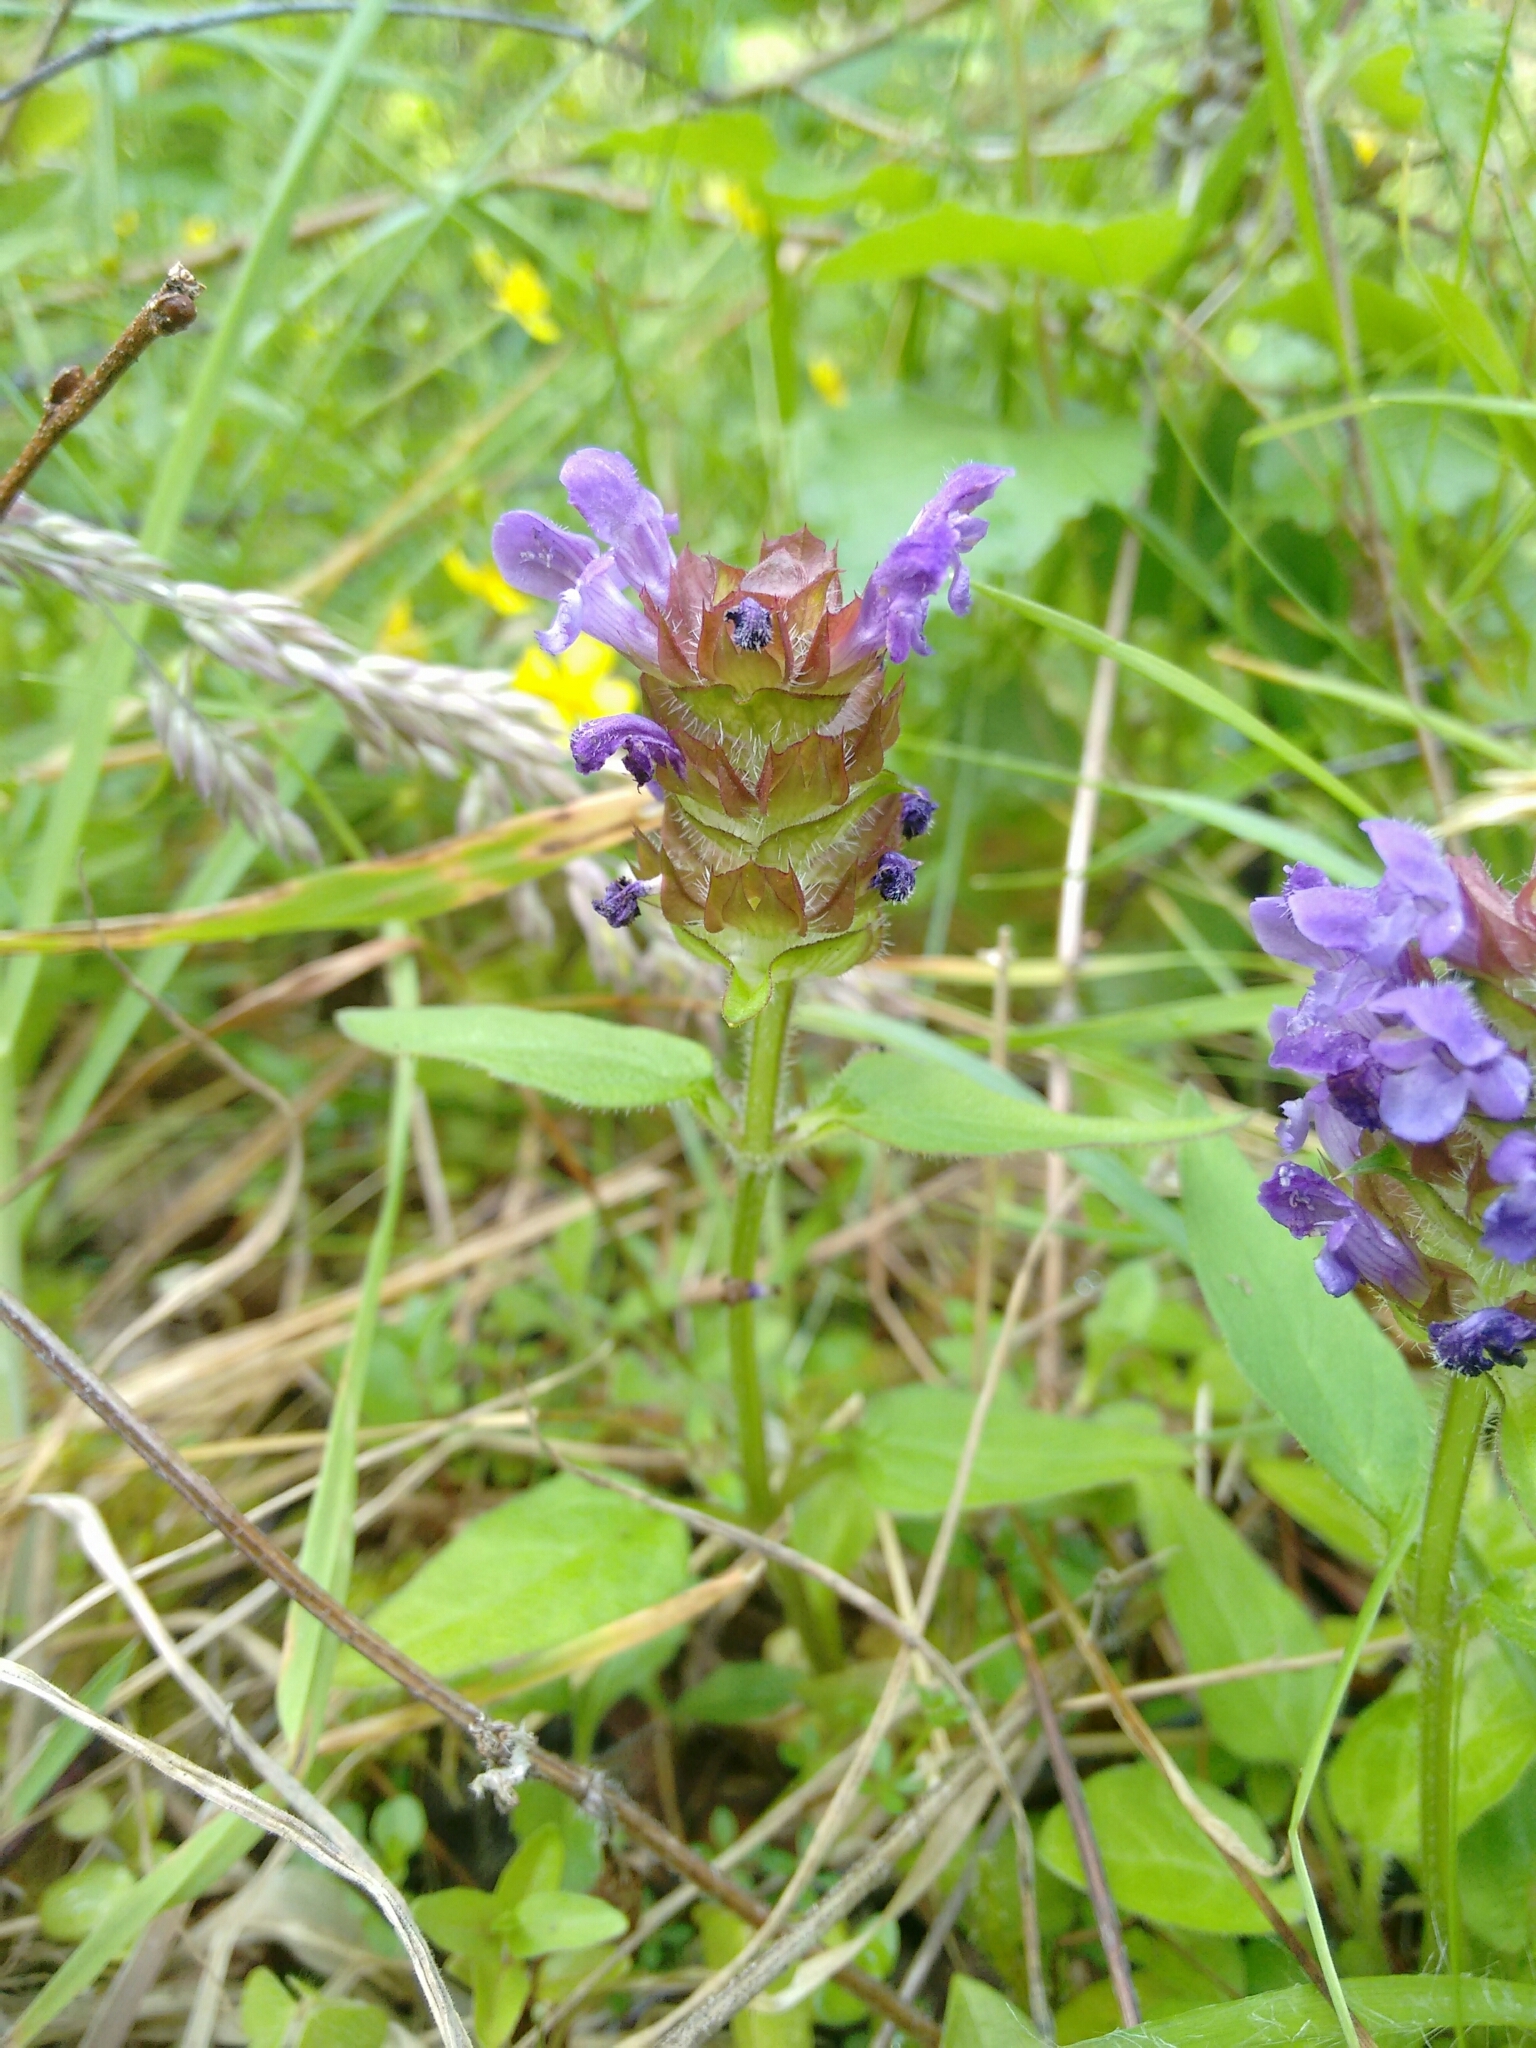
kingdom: Plantae
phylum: Tracheophyta
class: Magnoliopsida
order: Lamiales
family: Lamiaceae
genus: Prunella
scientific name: Prunella vulgaris
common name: Heal-all
